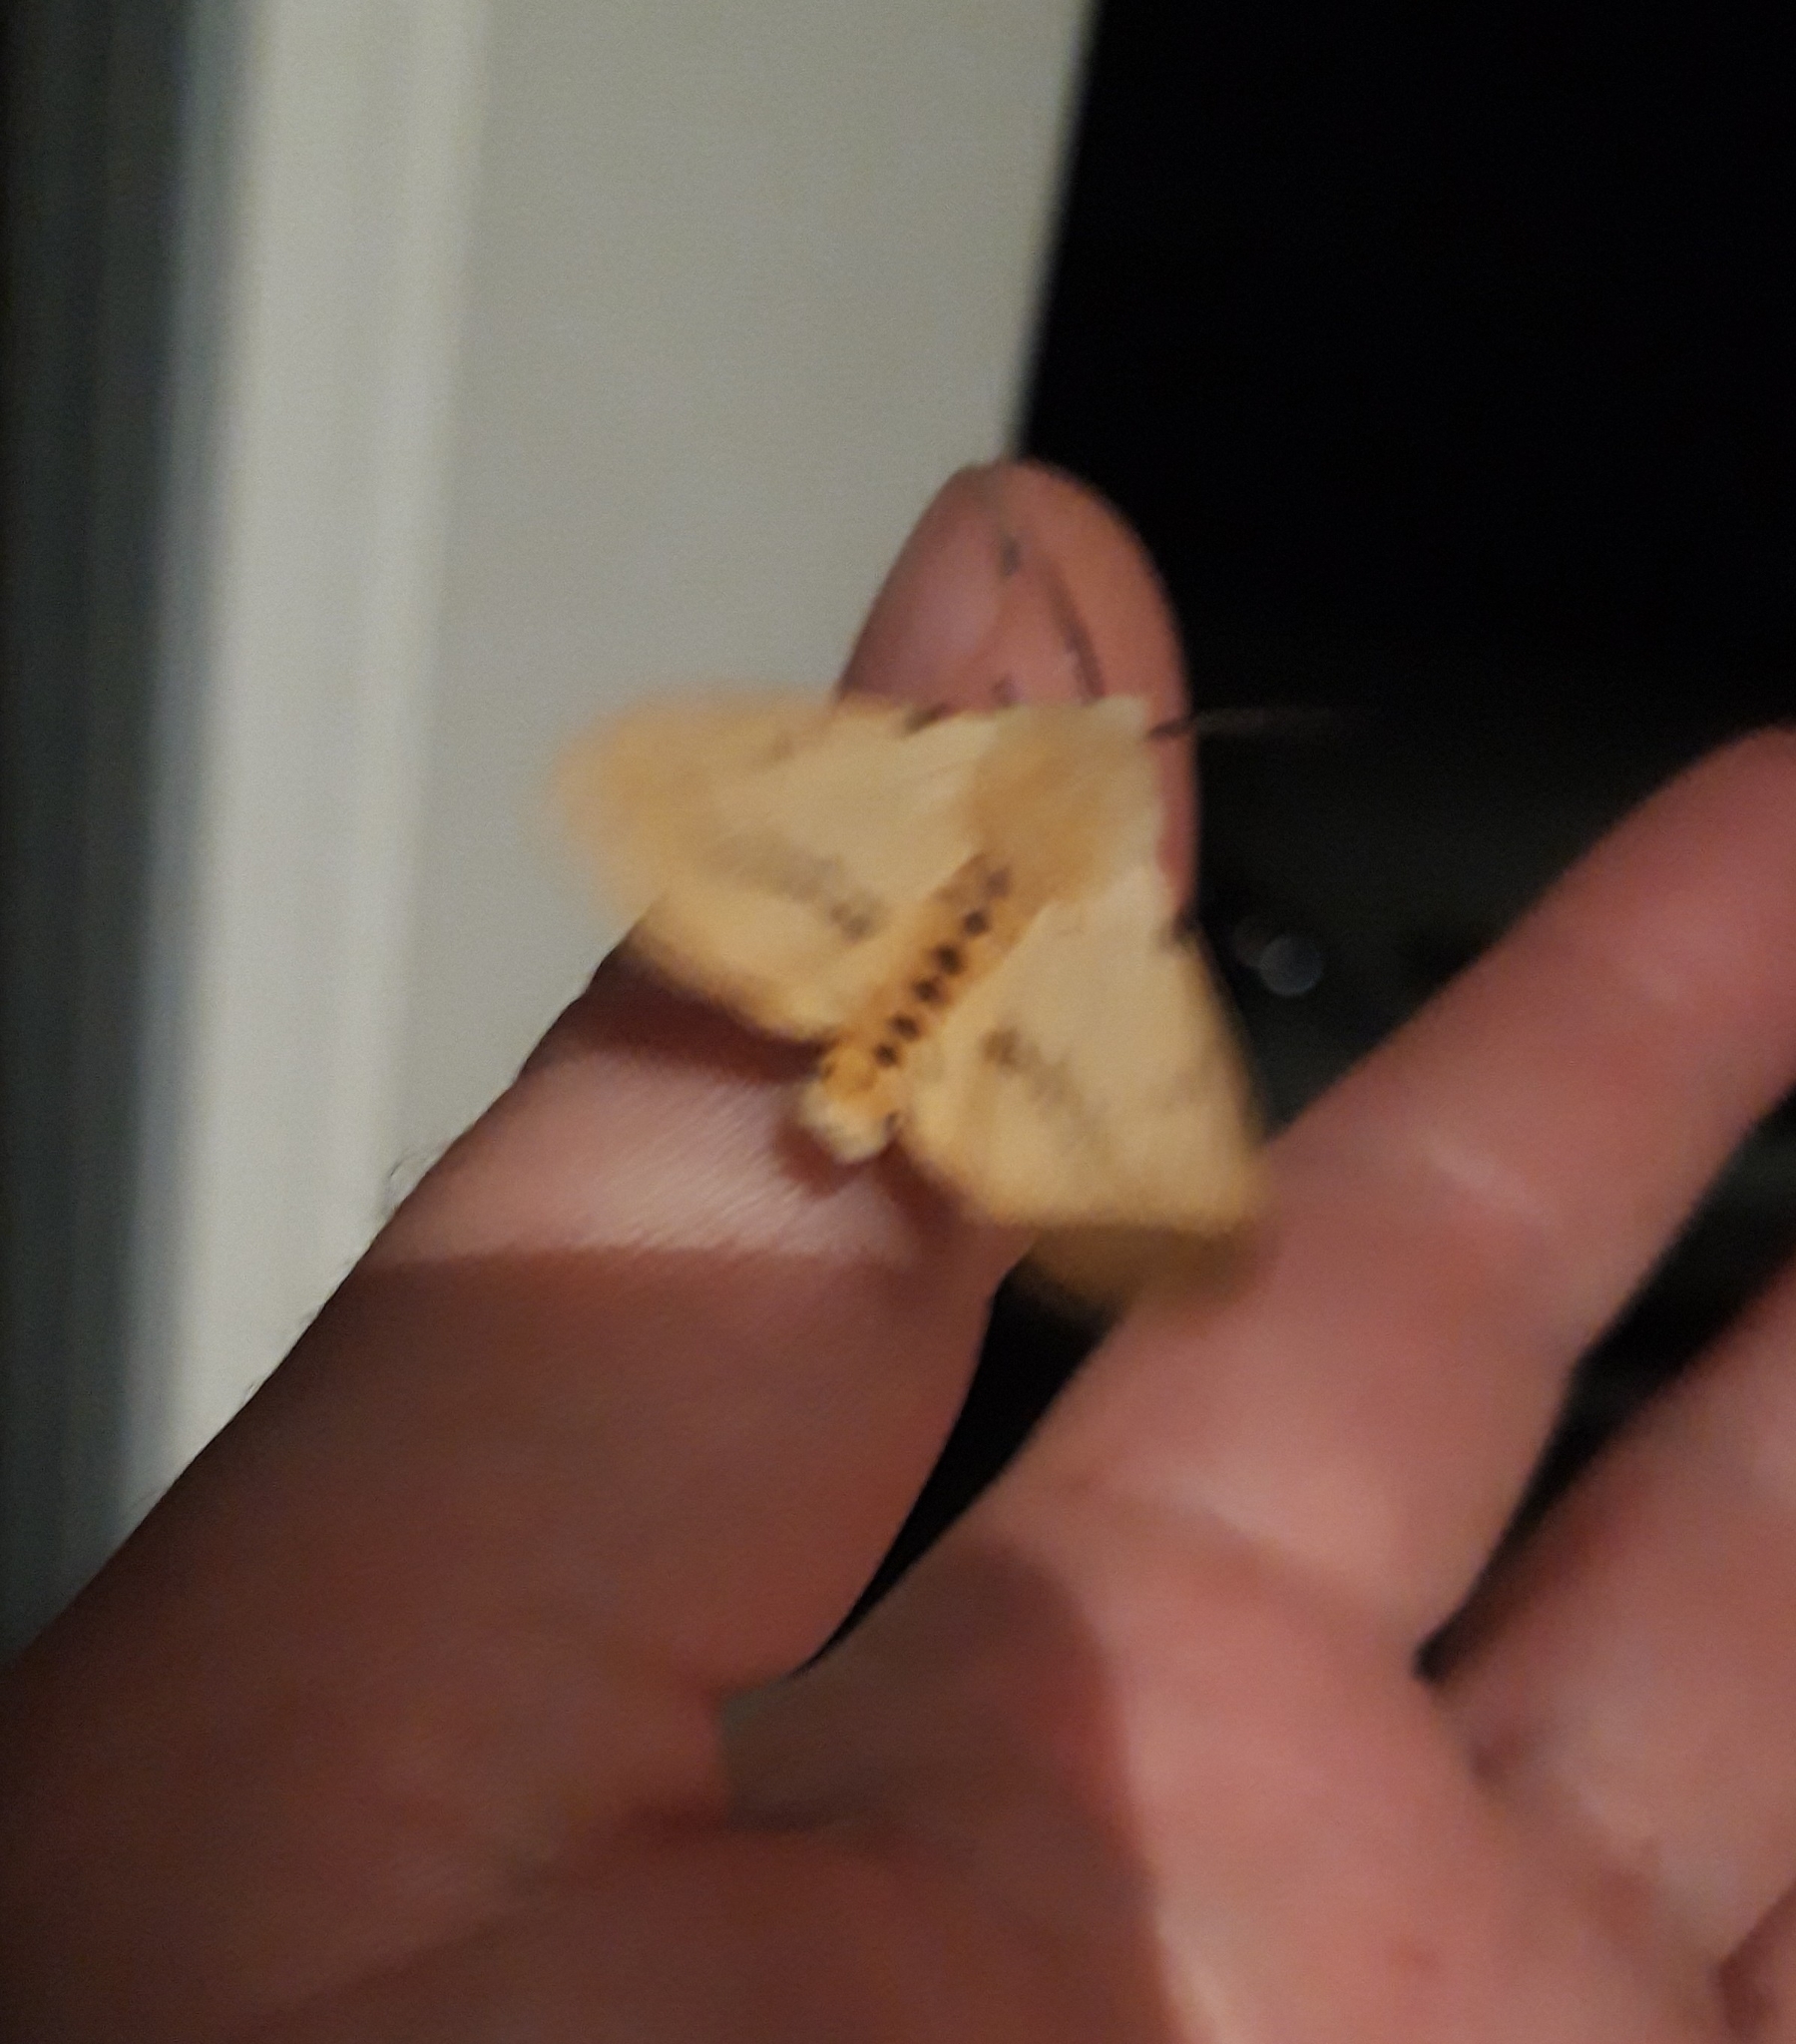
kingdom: Animalia
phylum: Arthropoda
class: Insecta
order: Lepidoptera
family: Erebidae
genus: Spilarctia
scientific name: Spilarctia lutea
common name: Buff ermine
